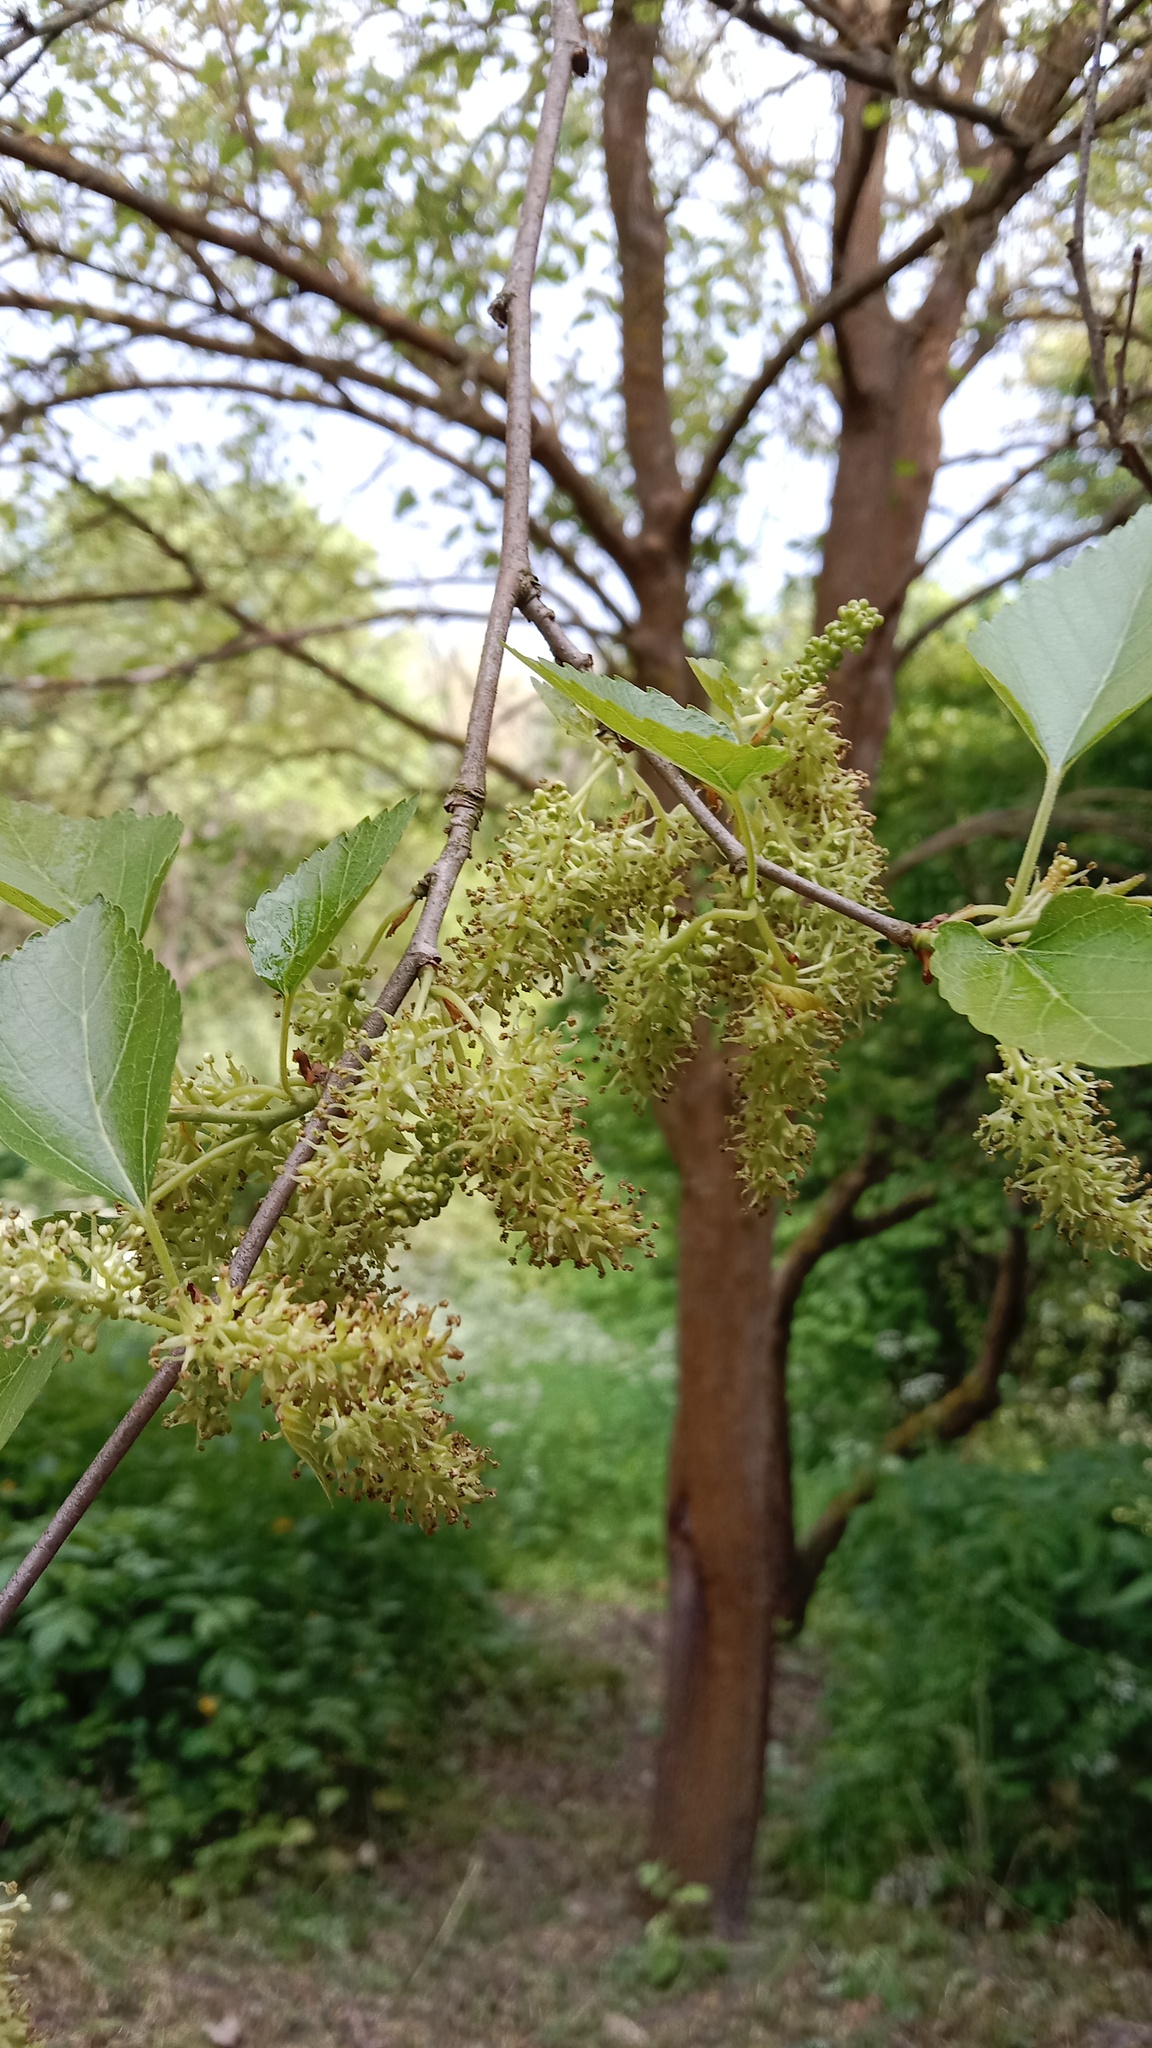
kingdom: Plantae
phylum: Tracheophyta
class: Magnoliopsida
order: Rosales
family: Moraceae
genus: Morus
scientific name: Morus alba
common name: White mulberry
